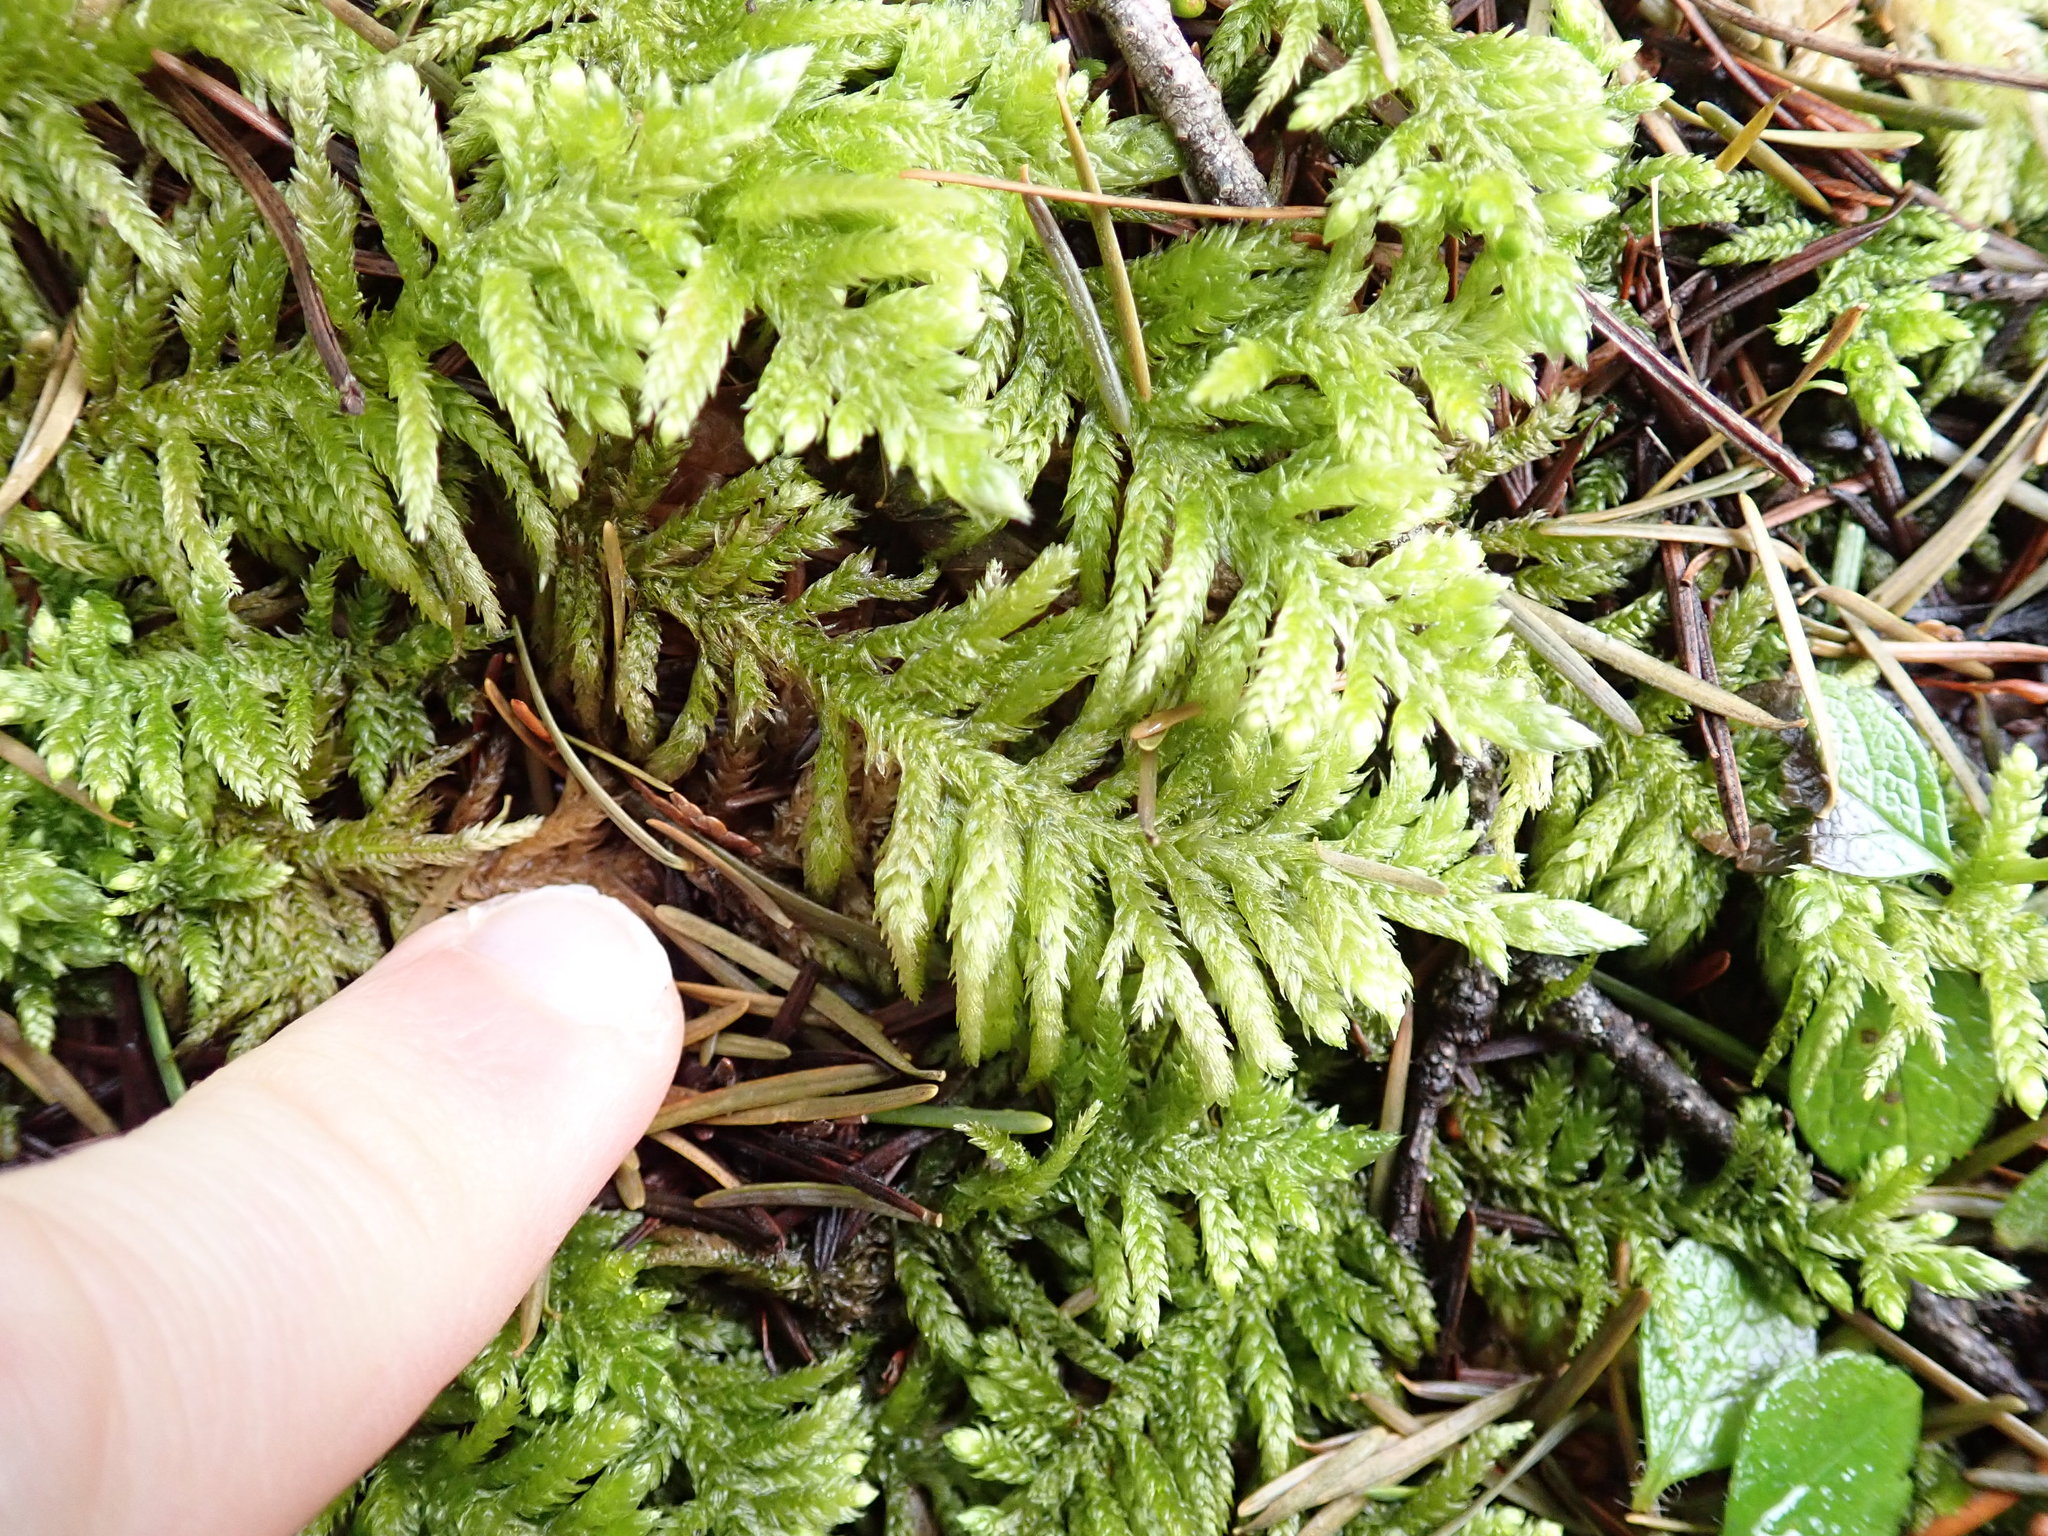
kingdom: Plantae
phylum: Bryophyta
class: Bryopsida
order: Hypnales
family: Brachytheciaceae
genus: Homalothecium
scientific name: Homalothecium megaptilum
